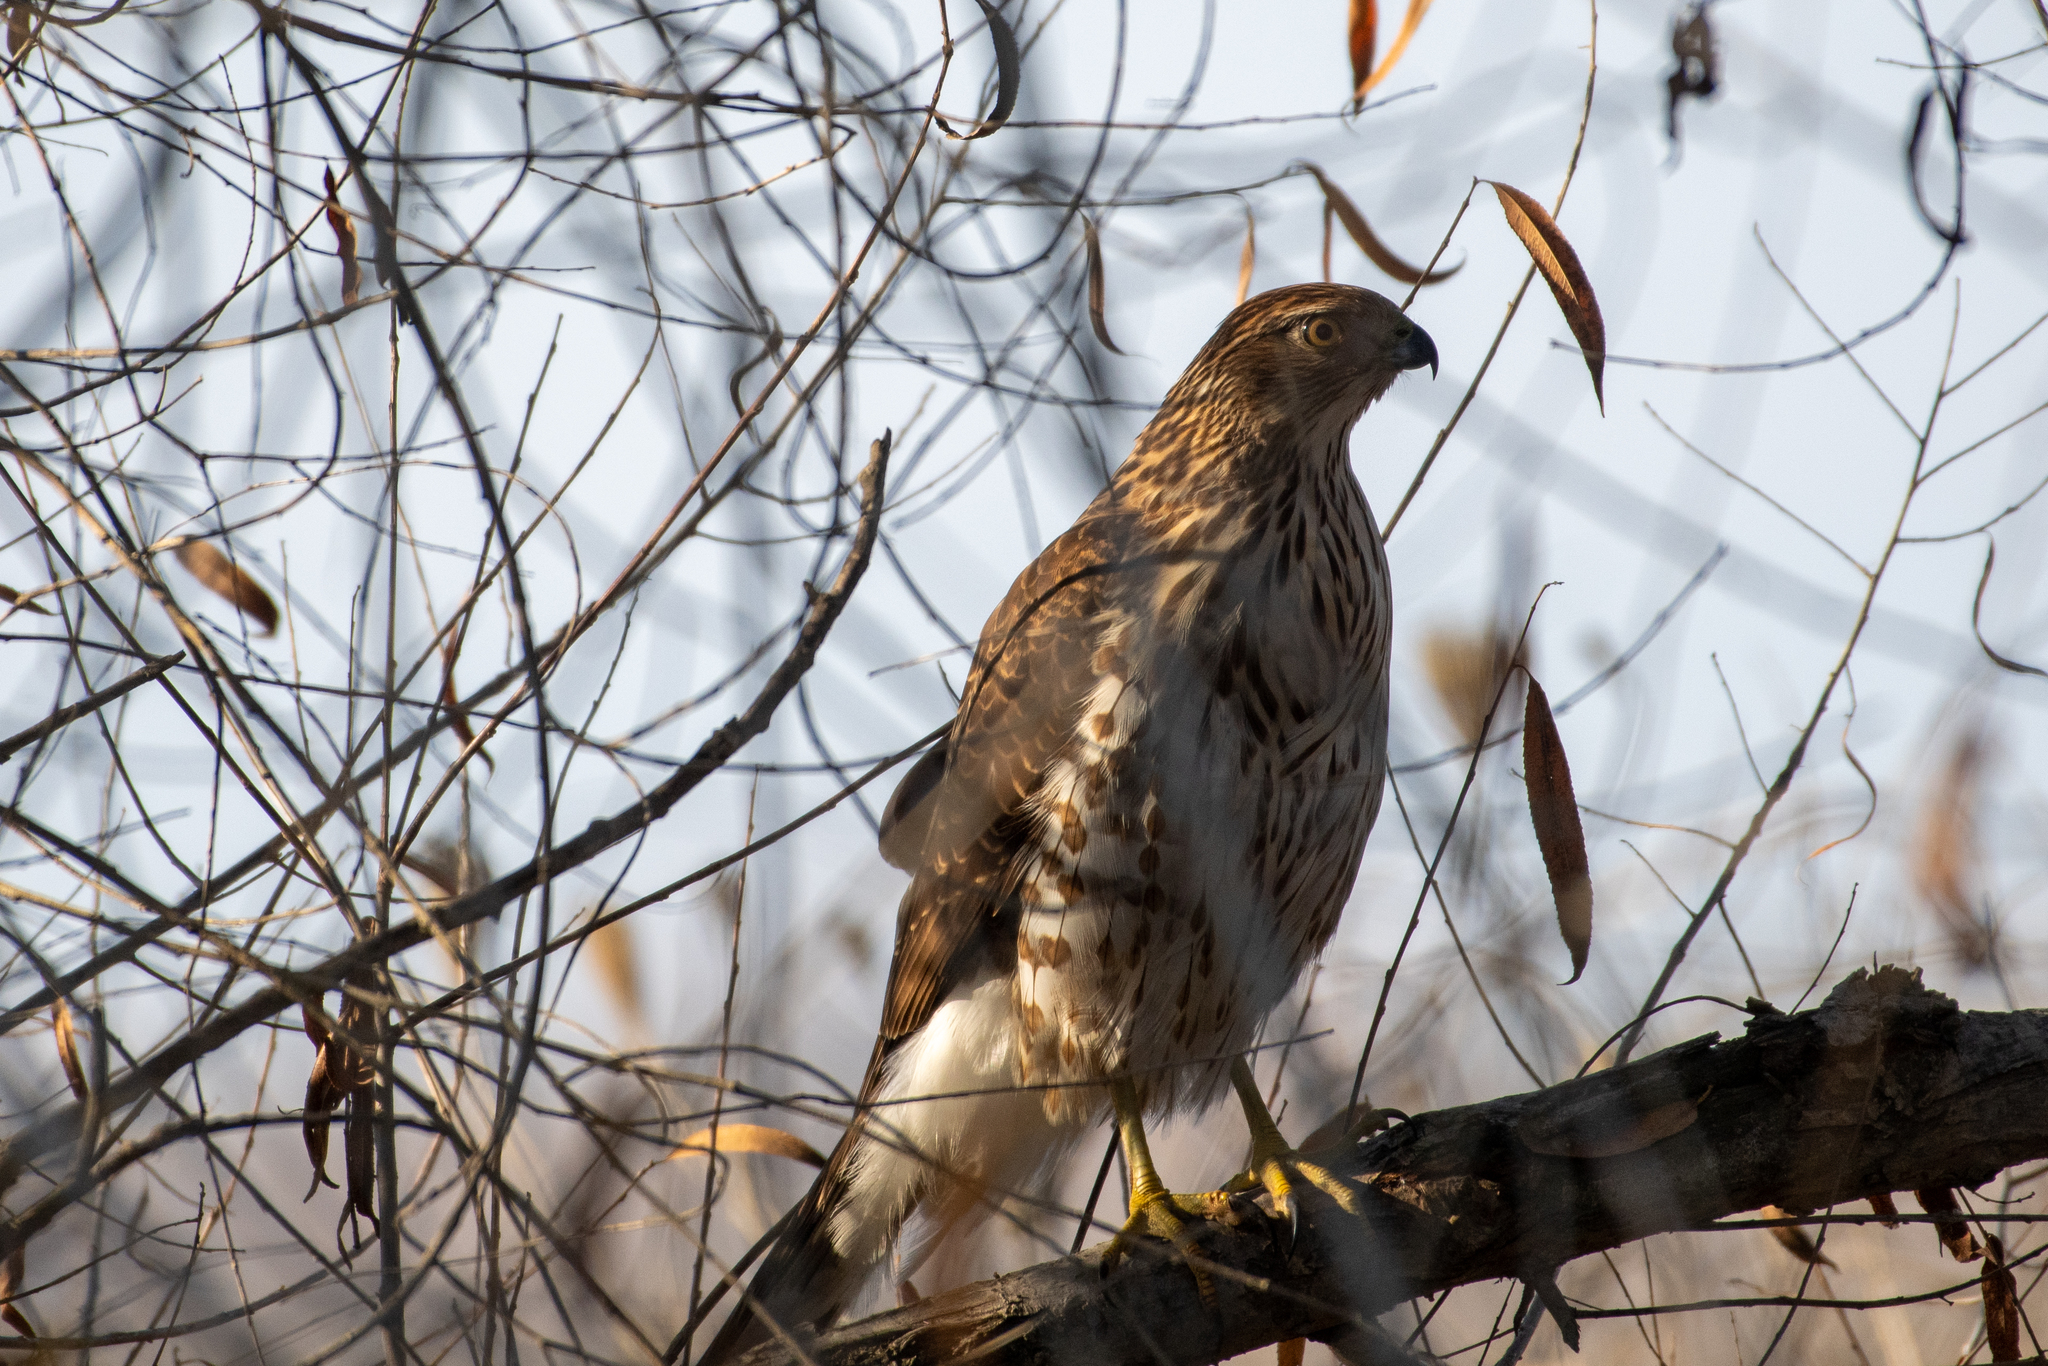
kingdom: Animalia
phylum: Chordata
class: Aves
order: Accipitriformes
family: Accipitridae
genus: Accipiter
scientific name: Accipiter cooperii
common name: Cooper's hawk
